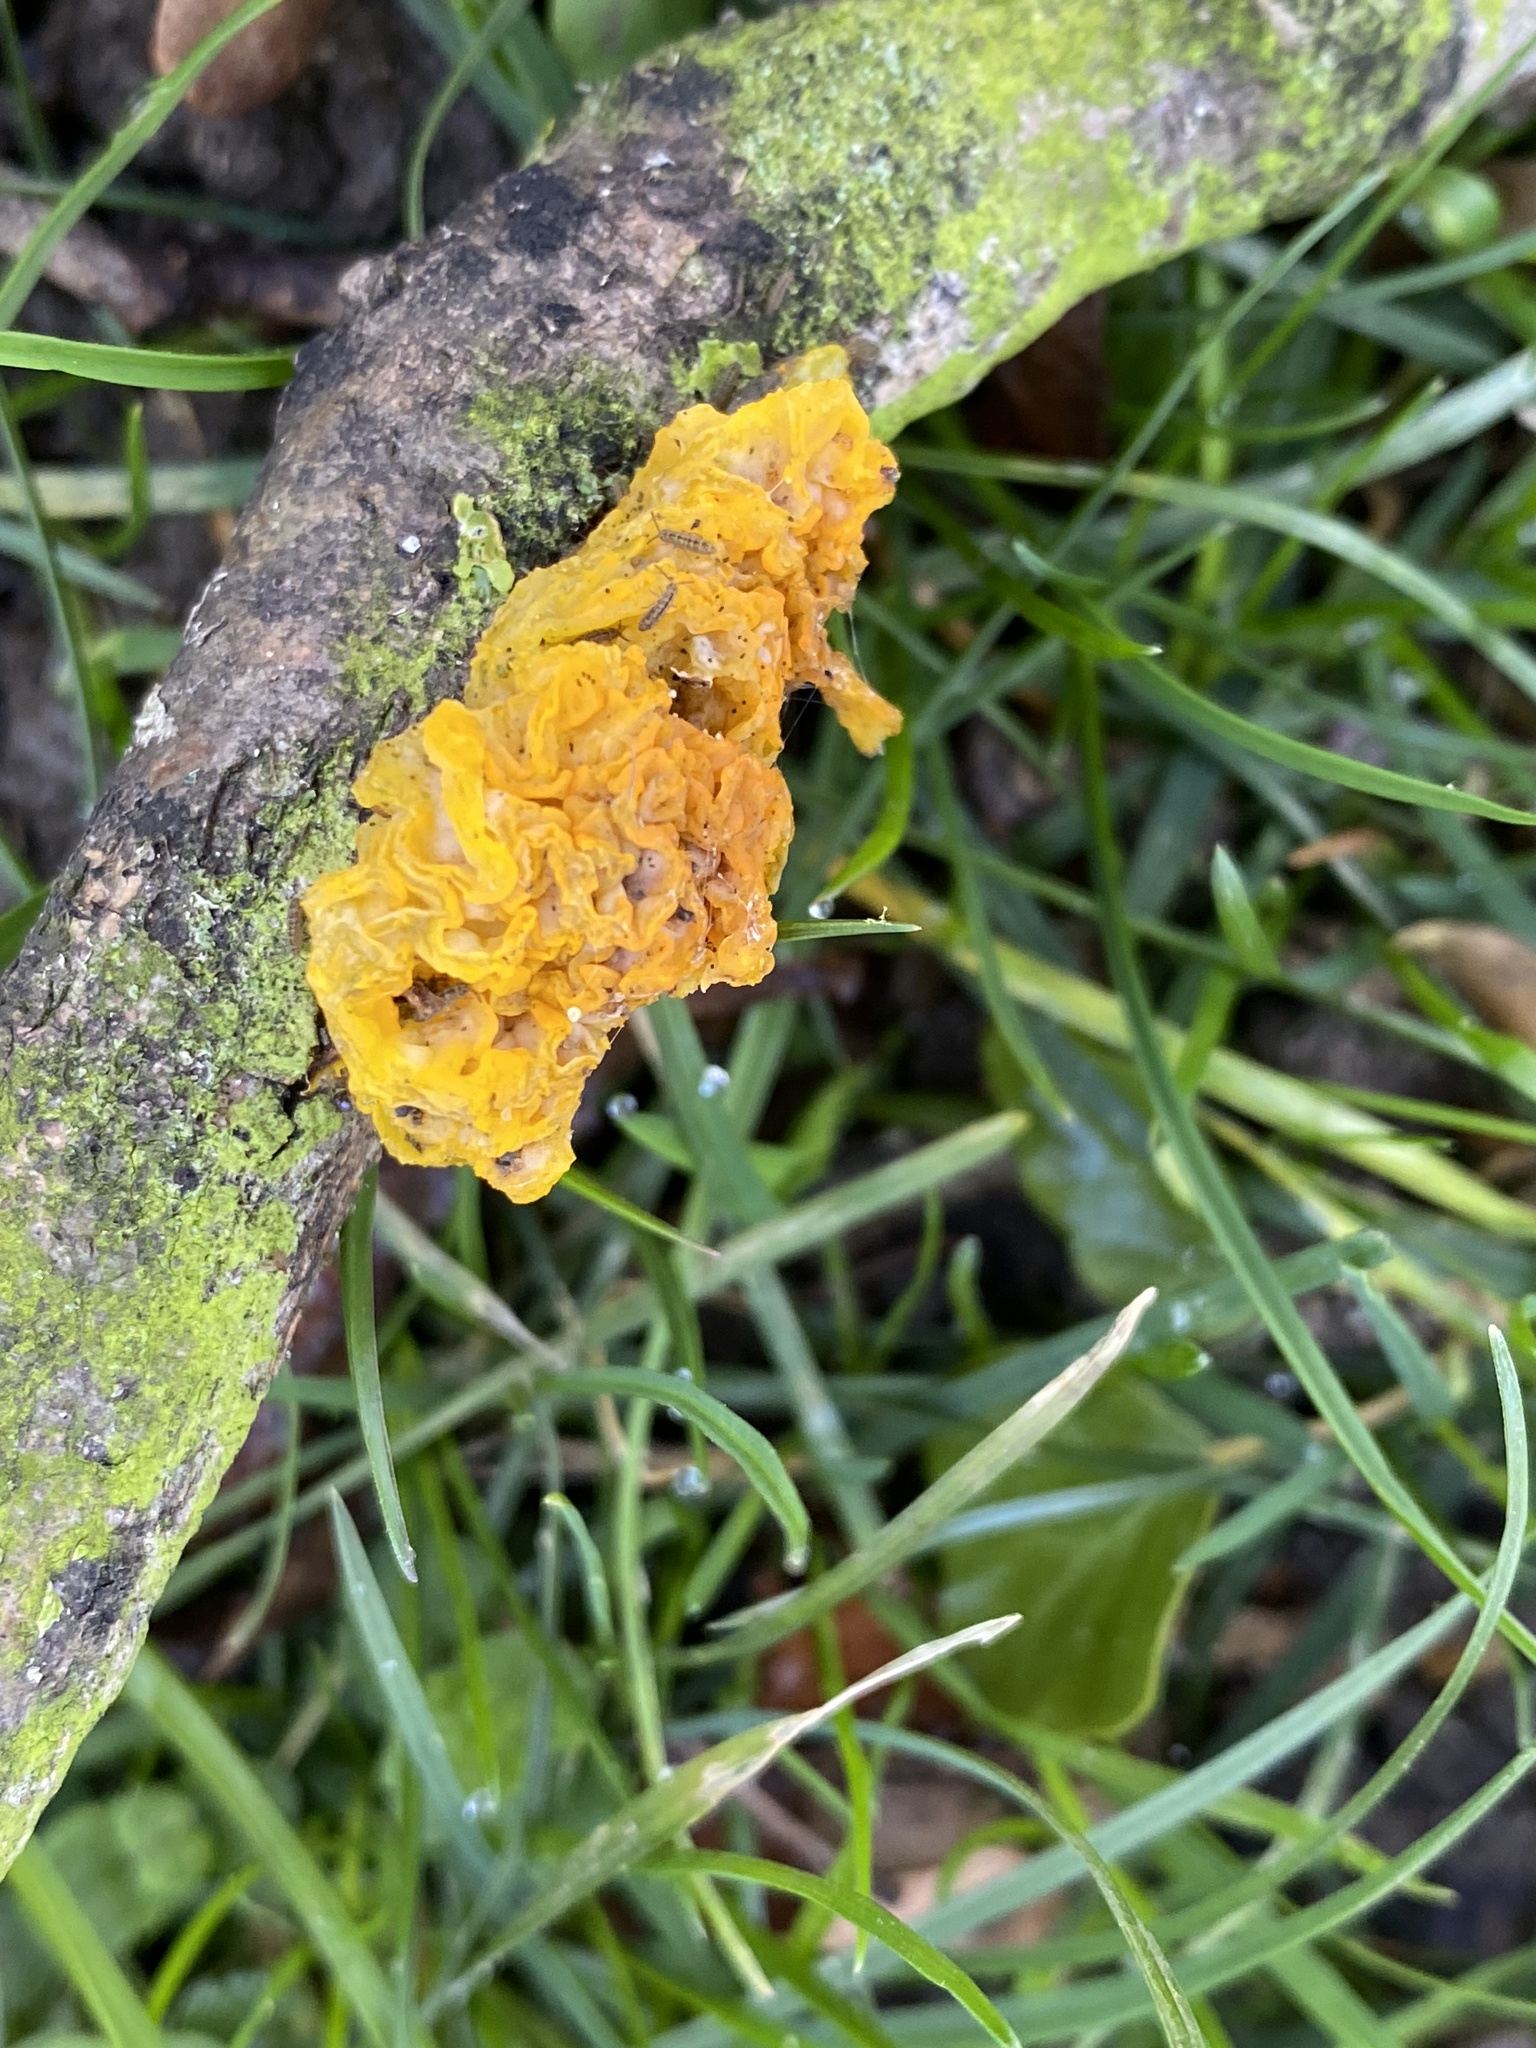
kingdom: Fungi
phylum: Basidiomycota
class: Tremellomycetes
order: Tremellales
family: Tremellaceae
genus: Tremella
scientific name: Tremella mesenterica
